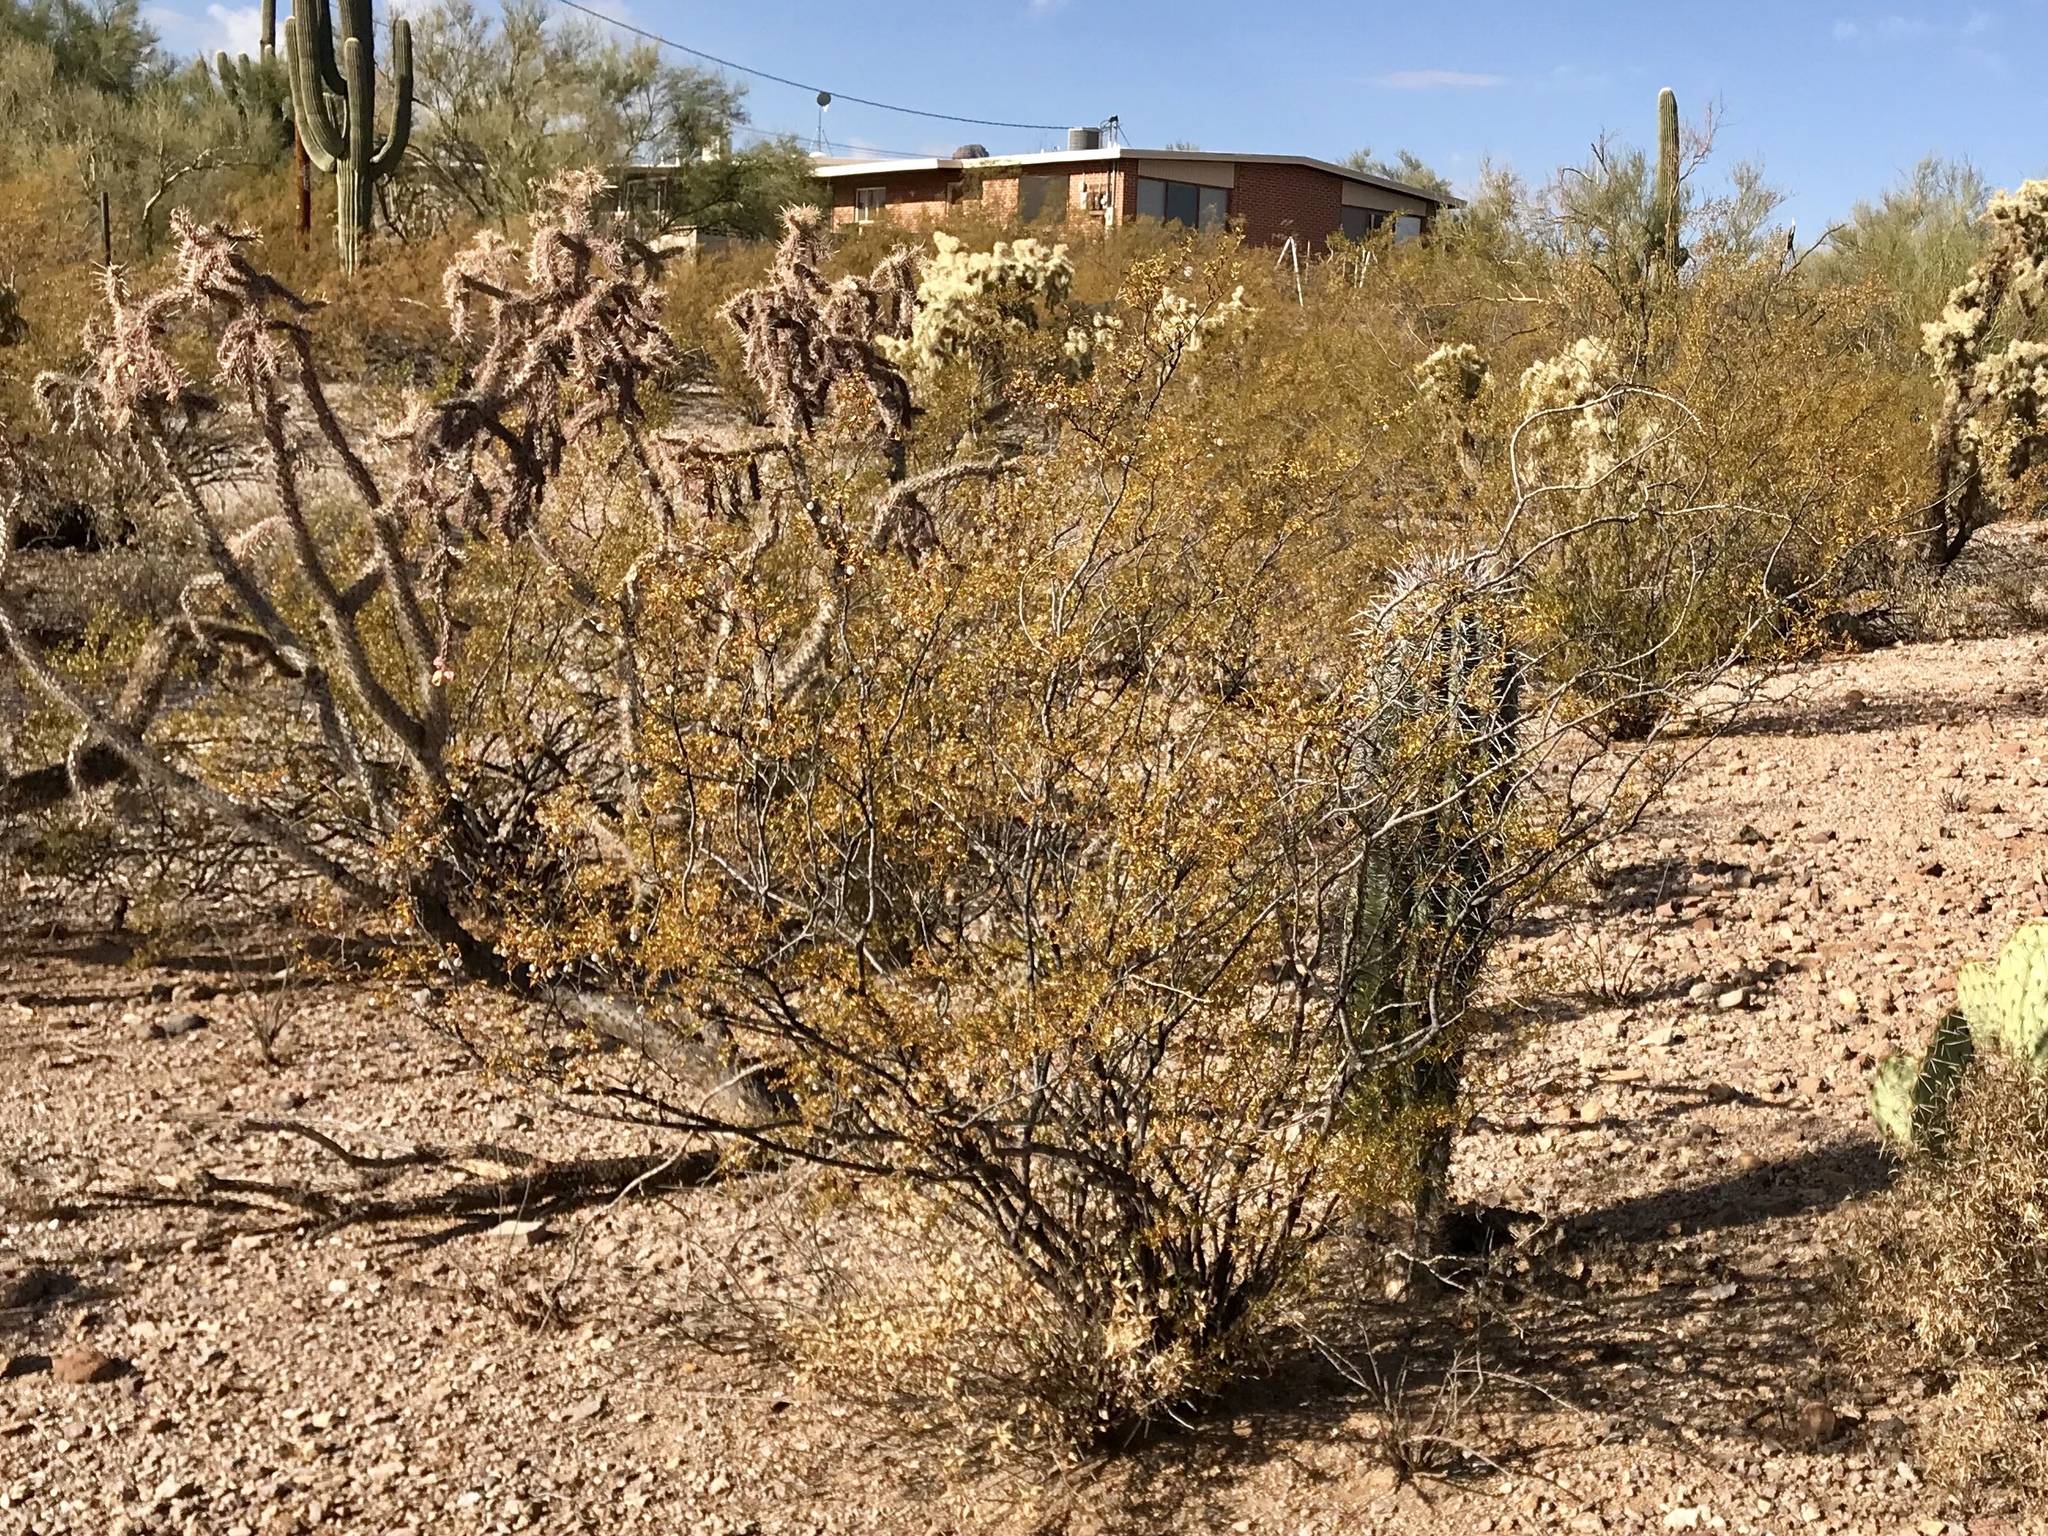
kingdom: Plantae
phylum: Tracheophyta
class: Magnoliopsida
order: Zygophyllales
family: Zygophyllaceae
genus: Larrea
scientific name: Larrea tridentata
